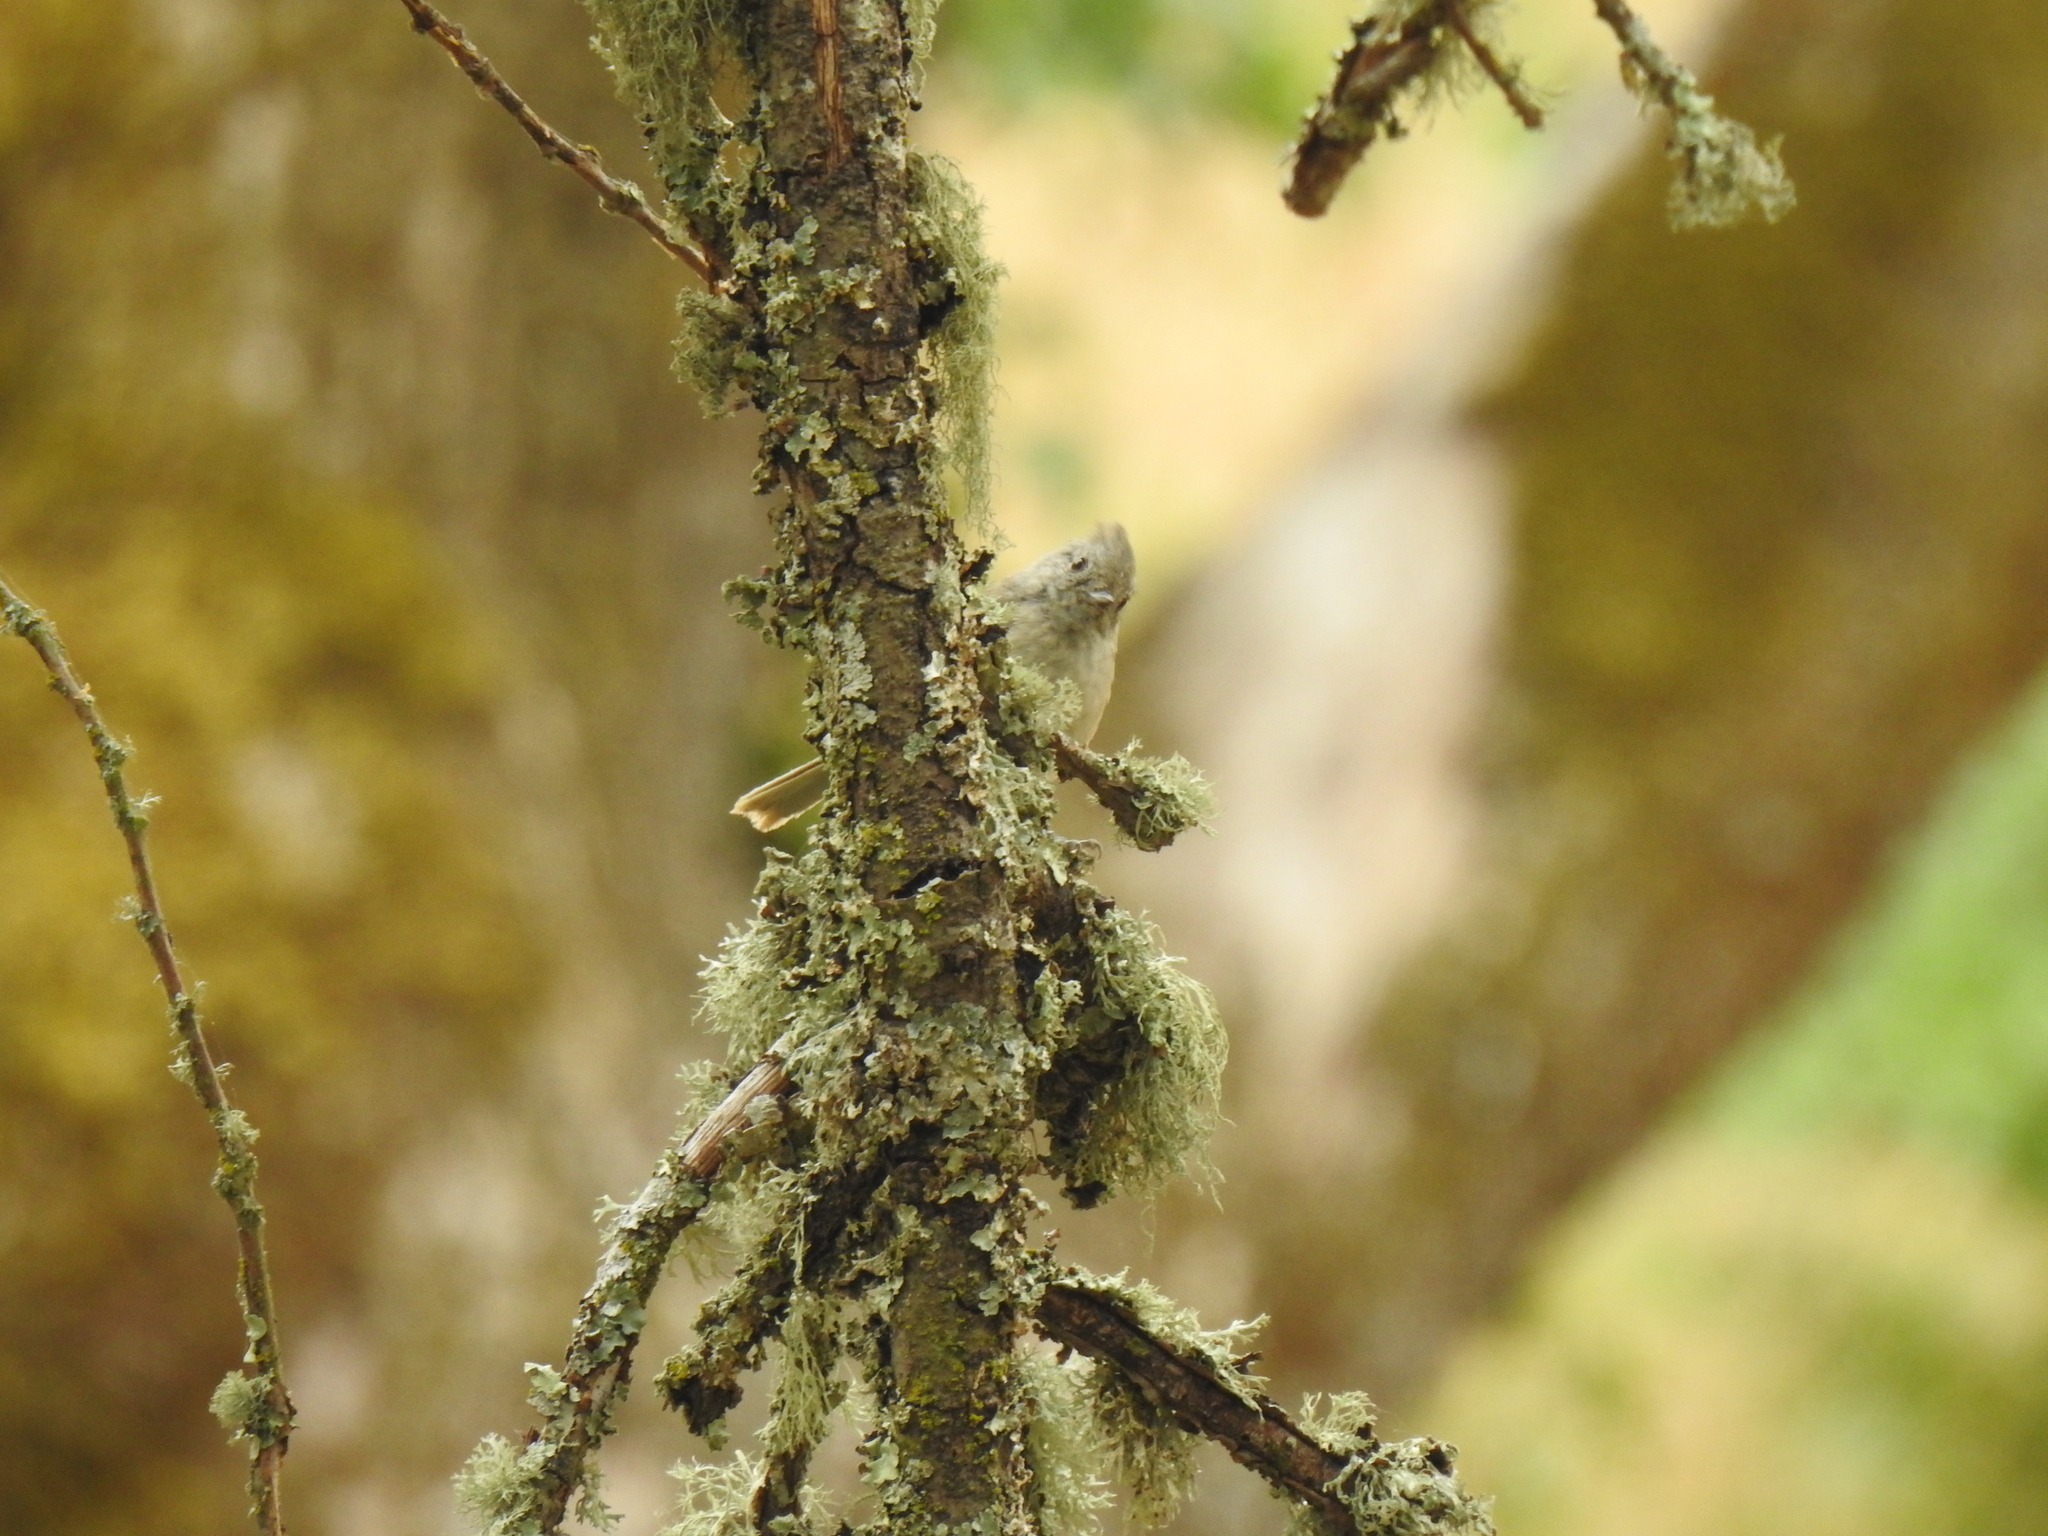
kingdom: Animalia
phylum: Chordata
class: Aves
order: Passeriformes
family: Paridae
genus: Baeolophus
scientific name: Baeolophus inornatus
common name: Oak titmouse
